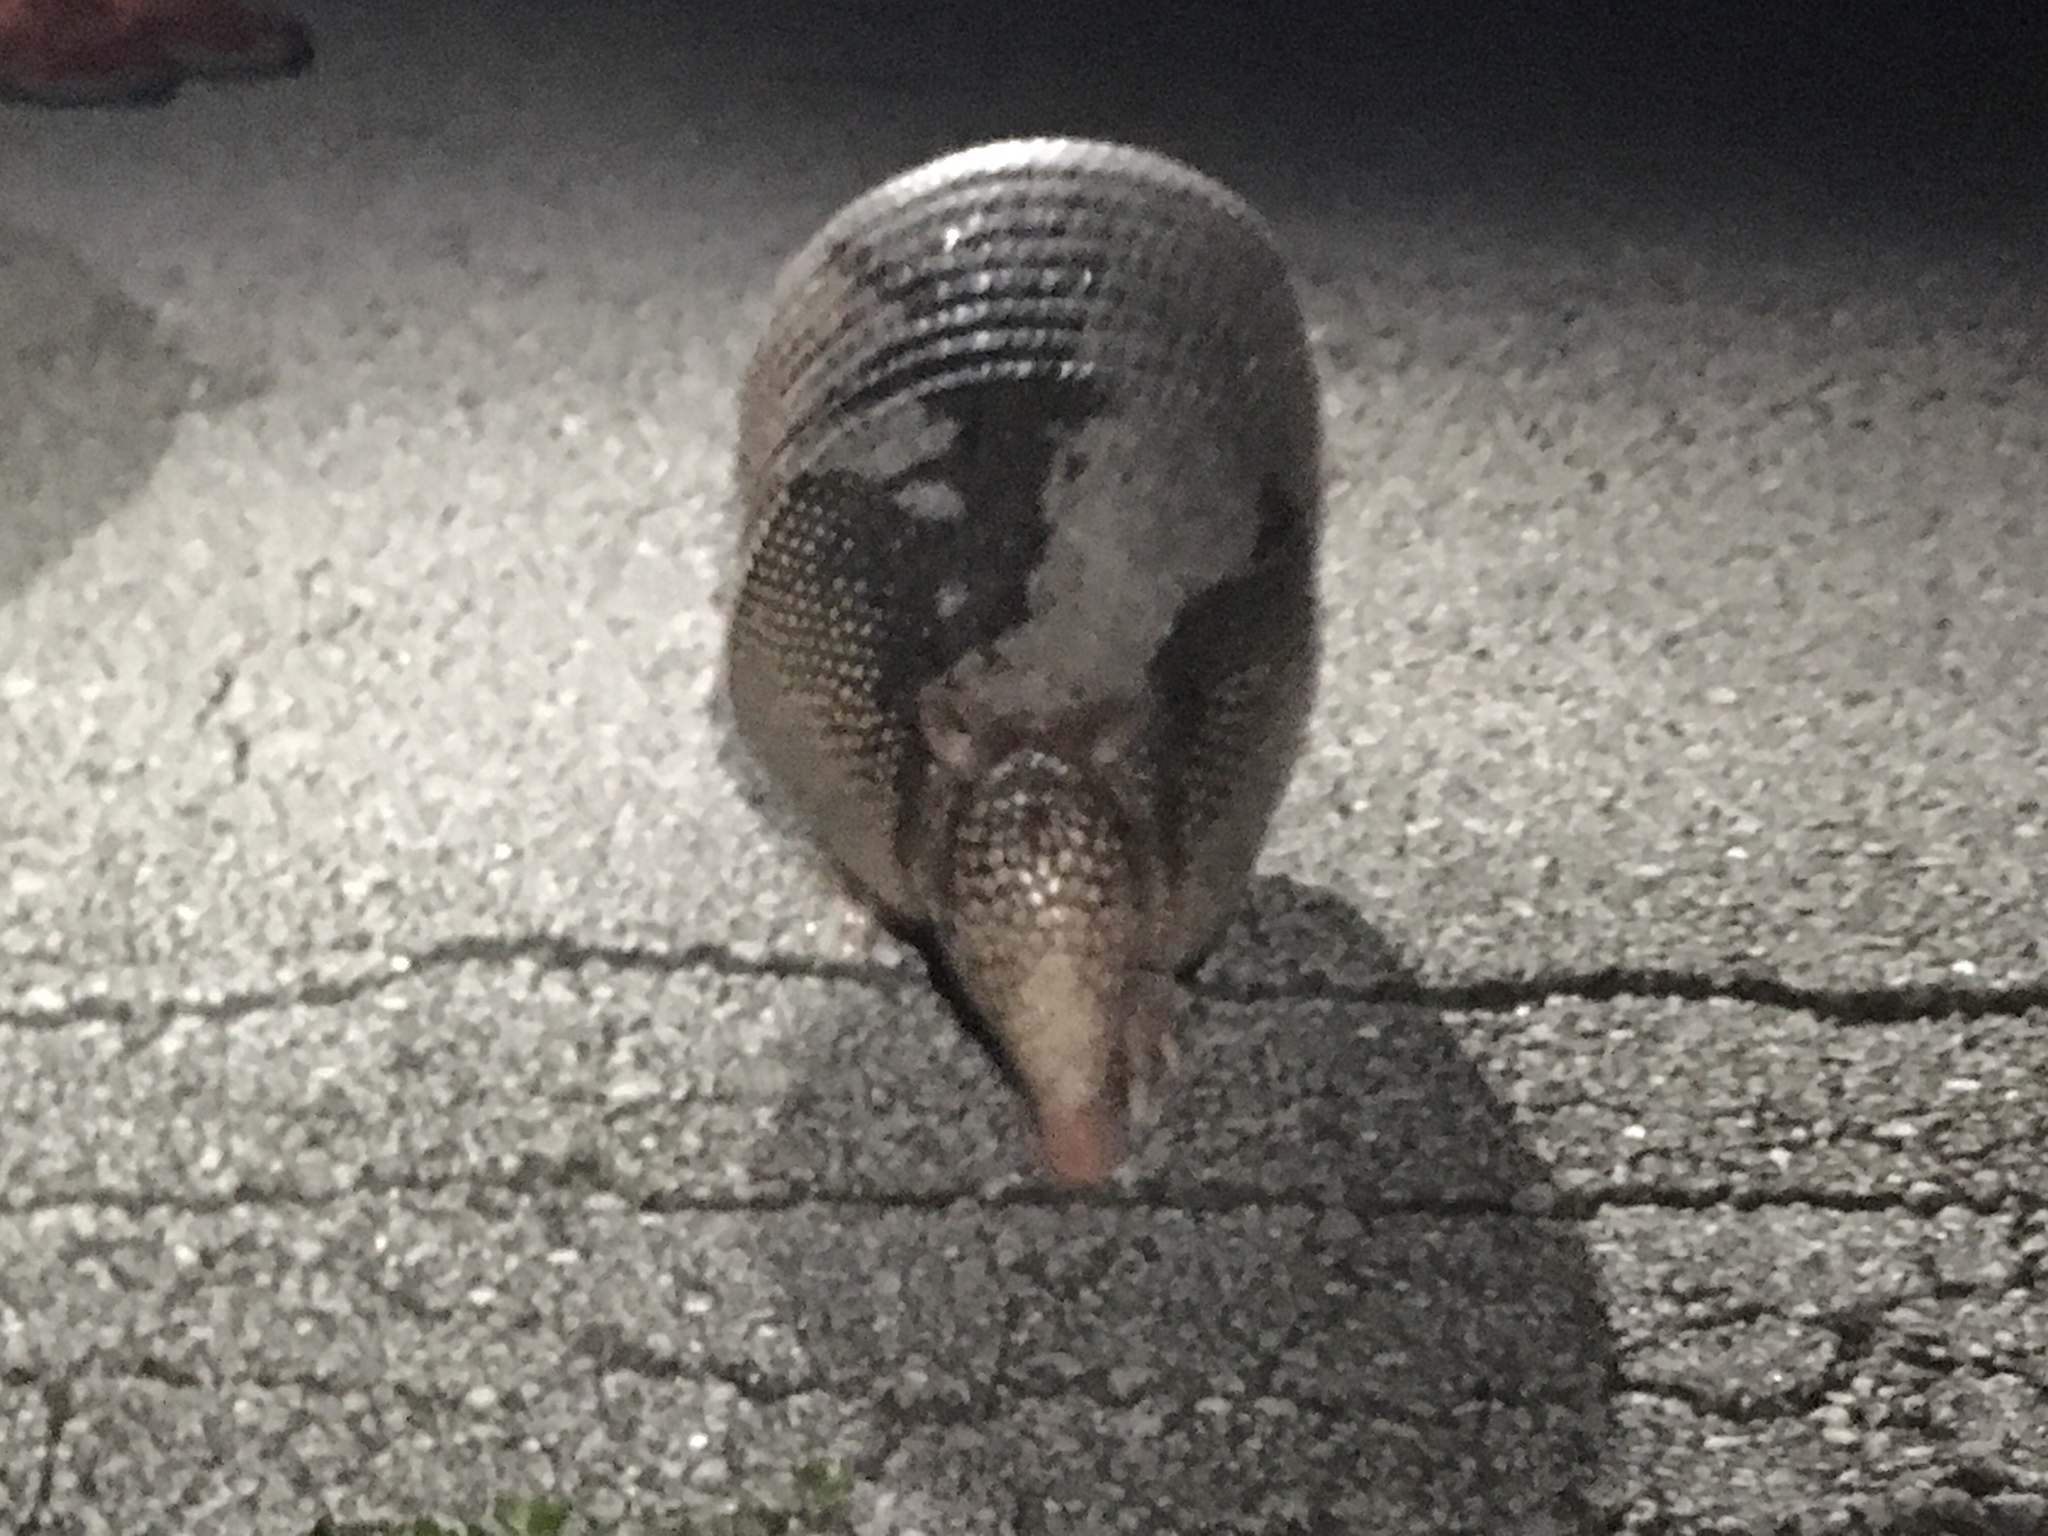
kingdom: Animalia
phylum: Chordata
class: Mammalia
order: Cingulata
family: Dasypodidae
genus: Dasypus
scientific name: Dasypus novemcinctus
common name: Nine-banded armadillo
